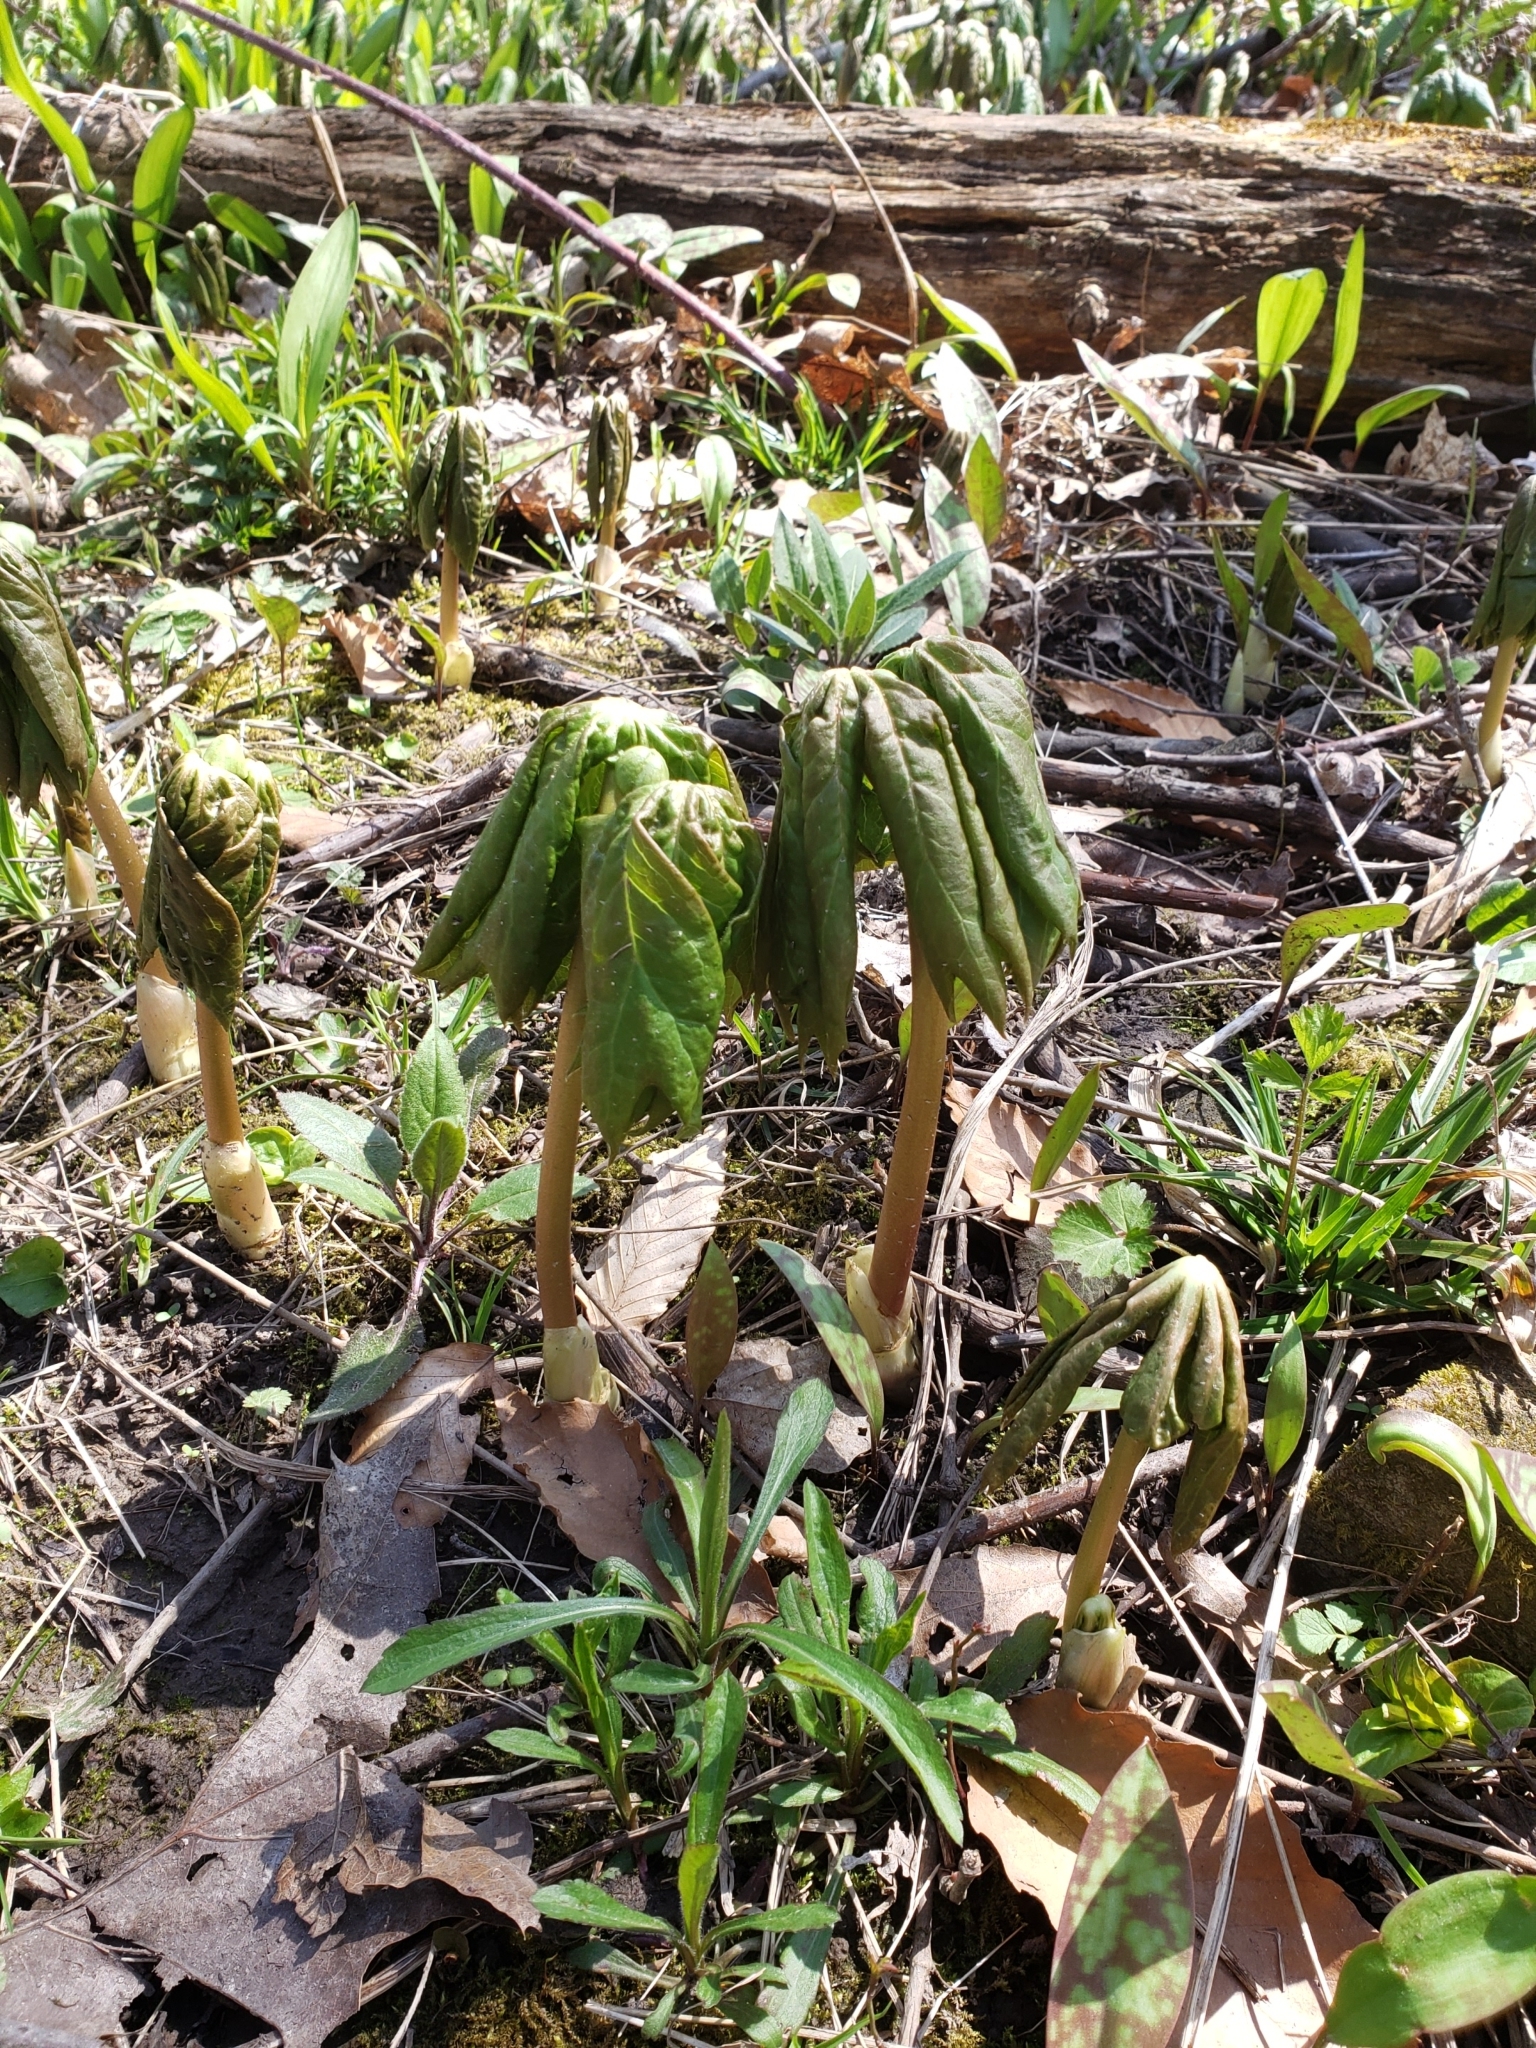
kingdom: Plantae
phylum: Tracheophyta
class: Magnoliopsida
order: Ranunculales
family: Berberidaceae
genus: Podophyllum
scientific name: Podophyllum peltatum
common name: Wild mandrake
